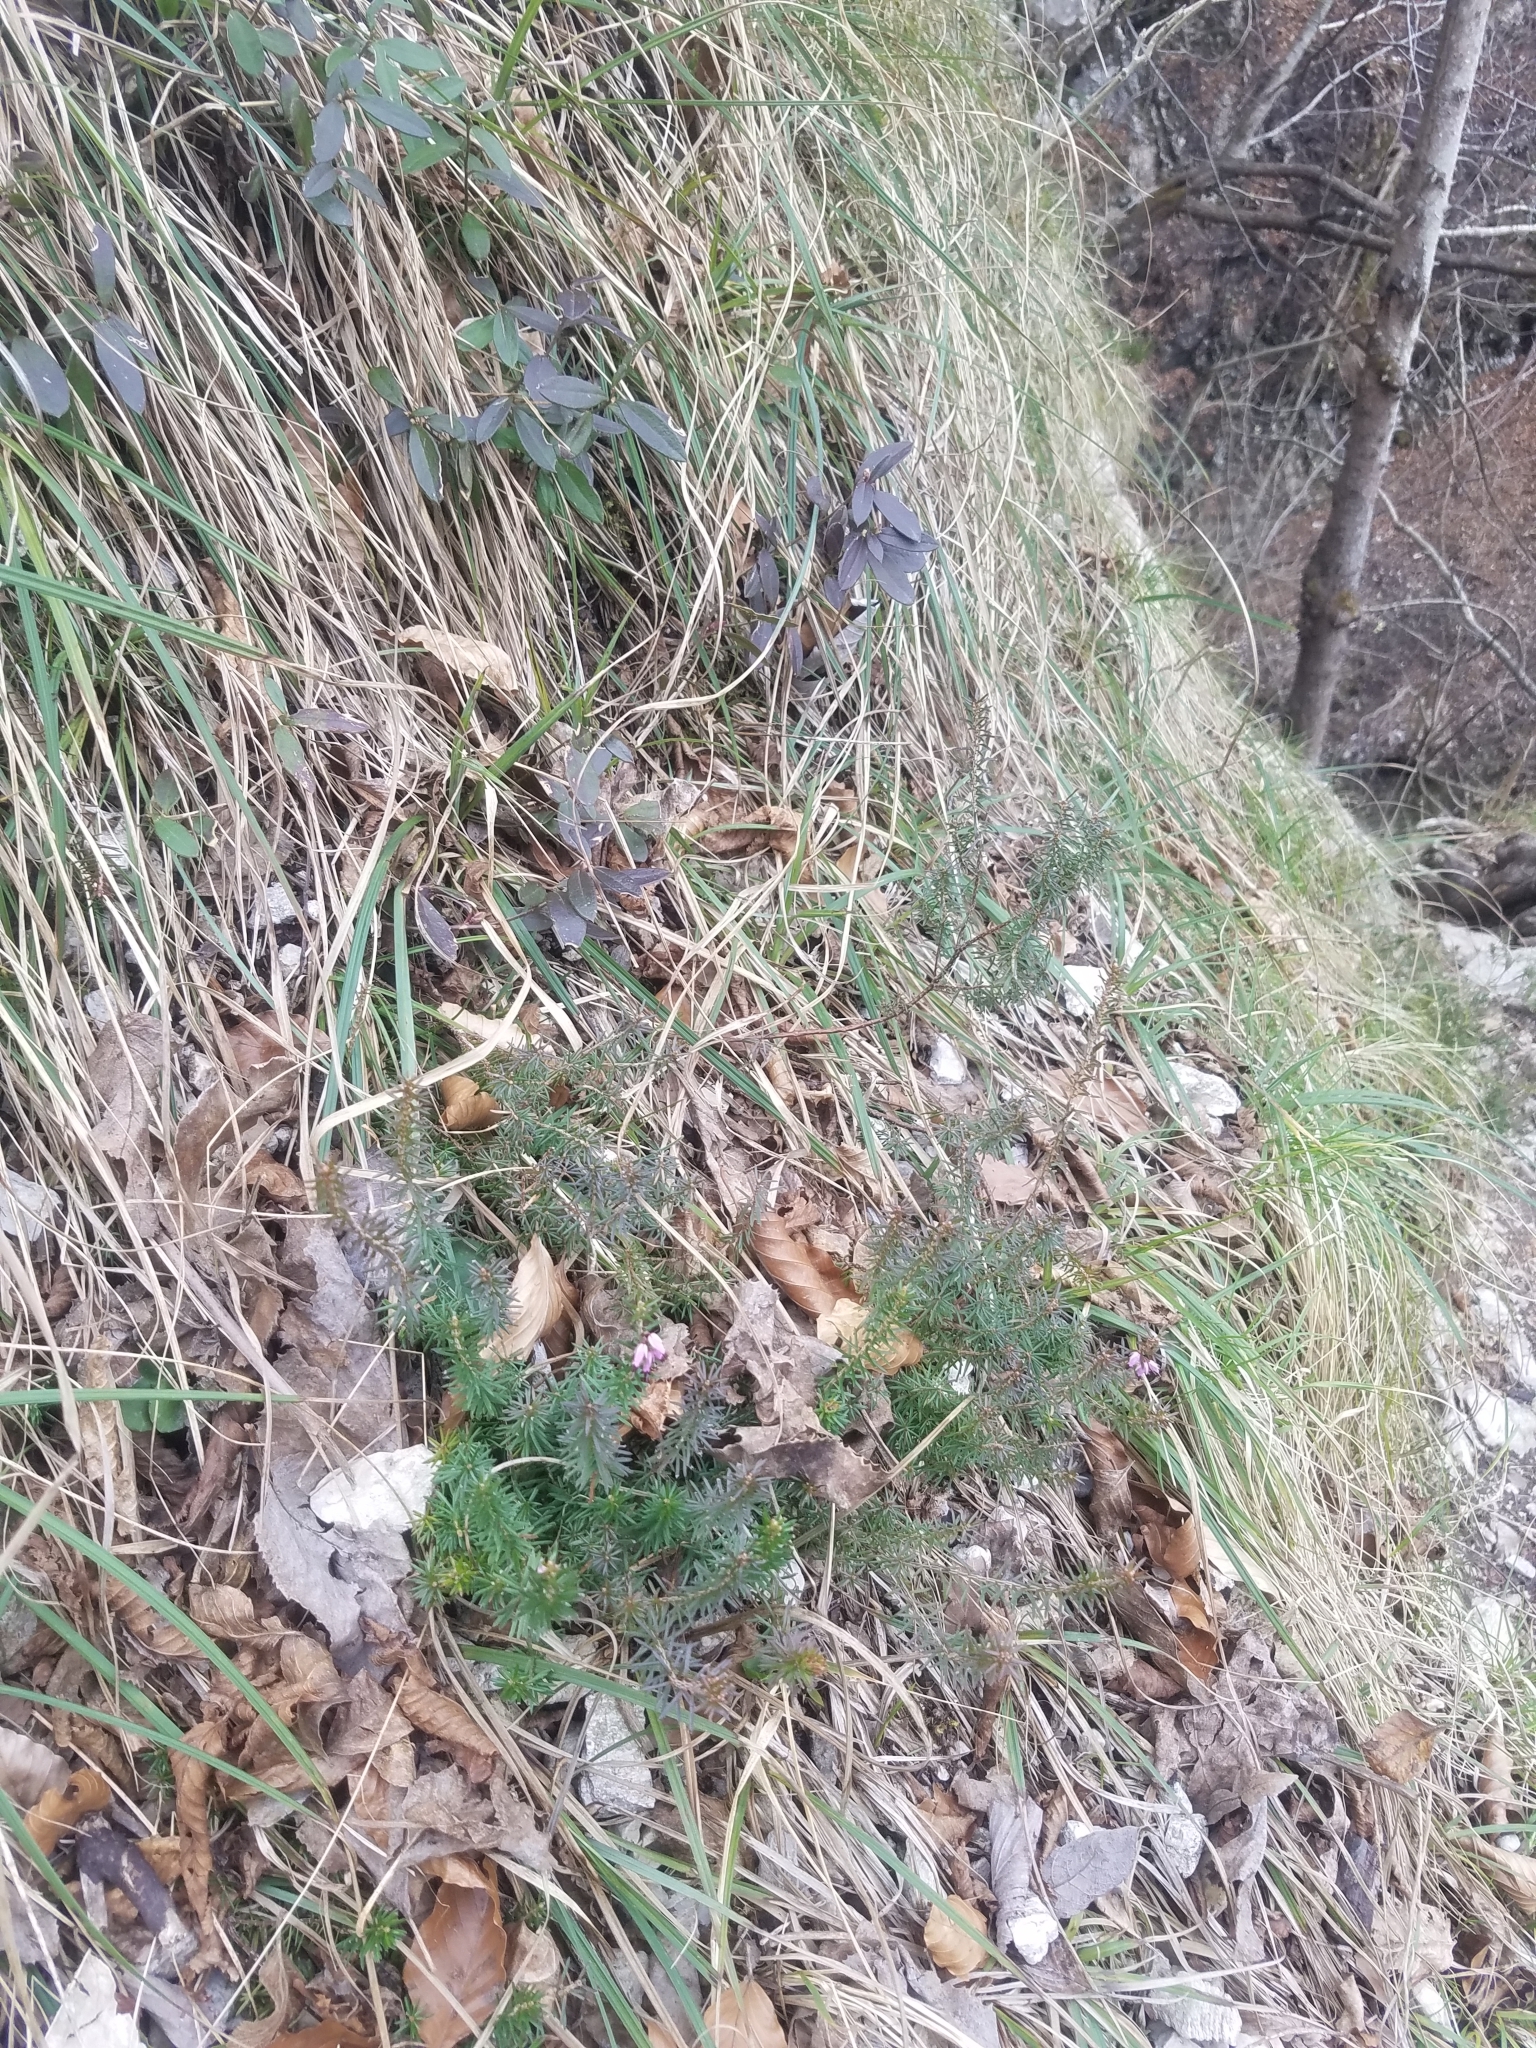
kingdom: Plantae
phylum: Tracheophyta
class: Magnoliopsida
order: Ericales
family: Ericaceae
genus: Erica
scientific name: Erica carnea
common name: Winter heath
